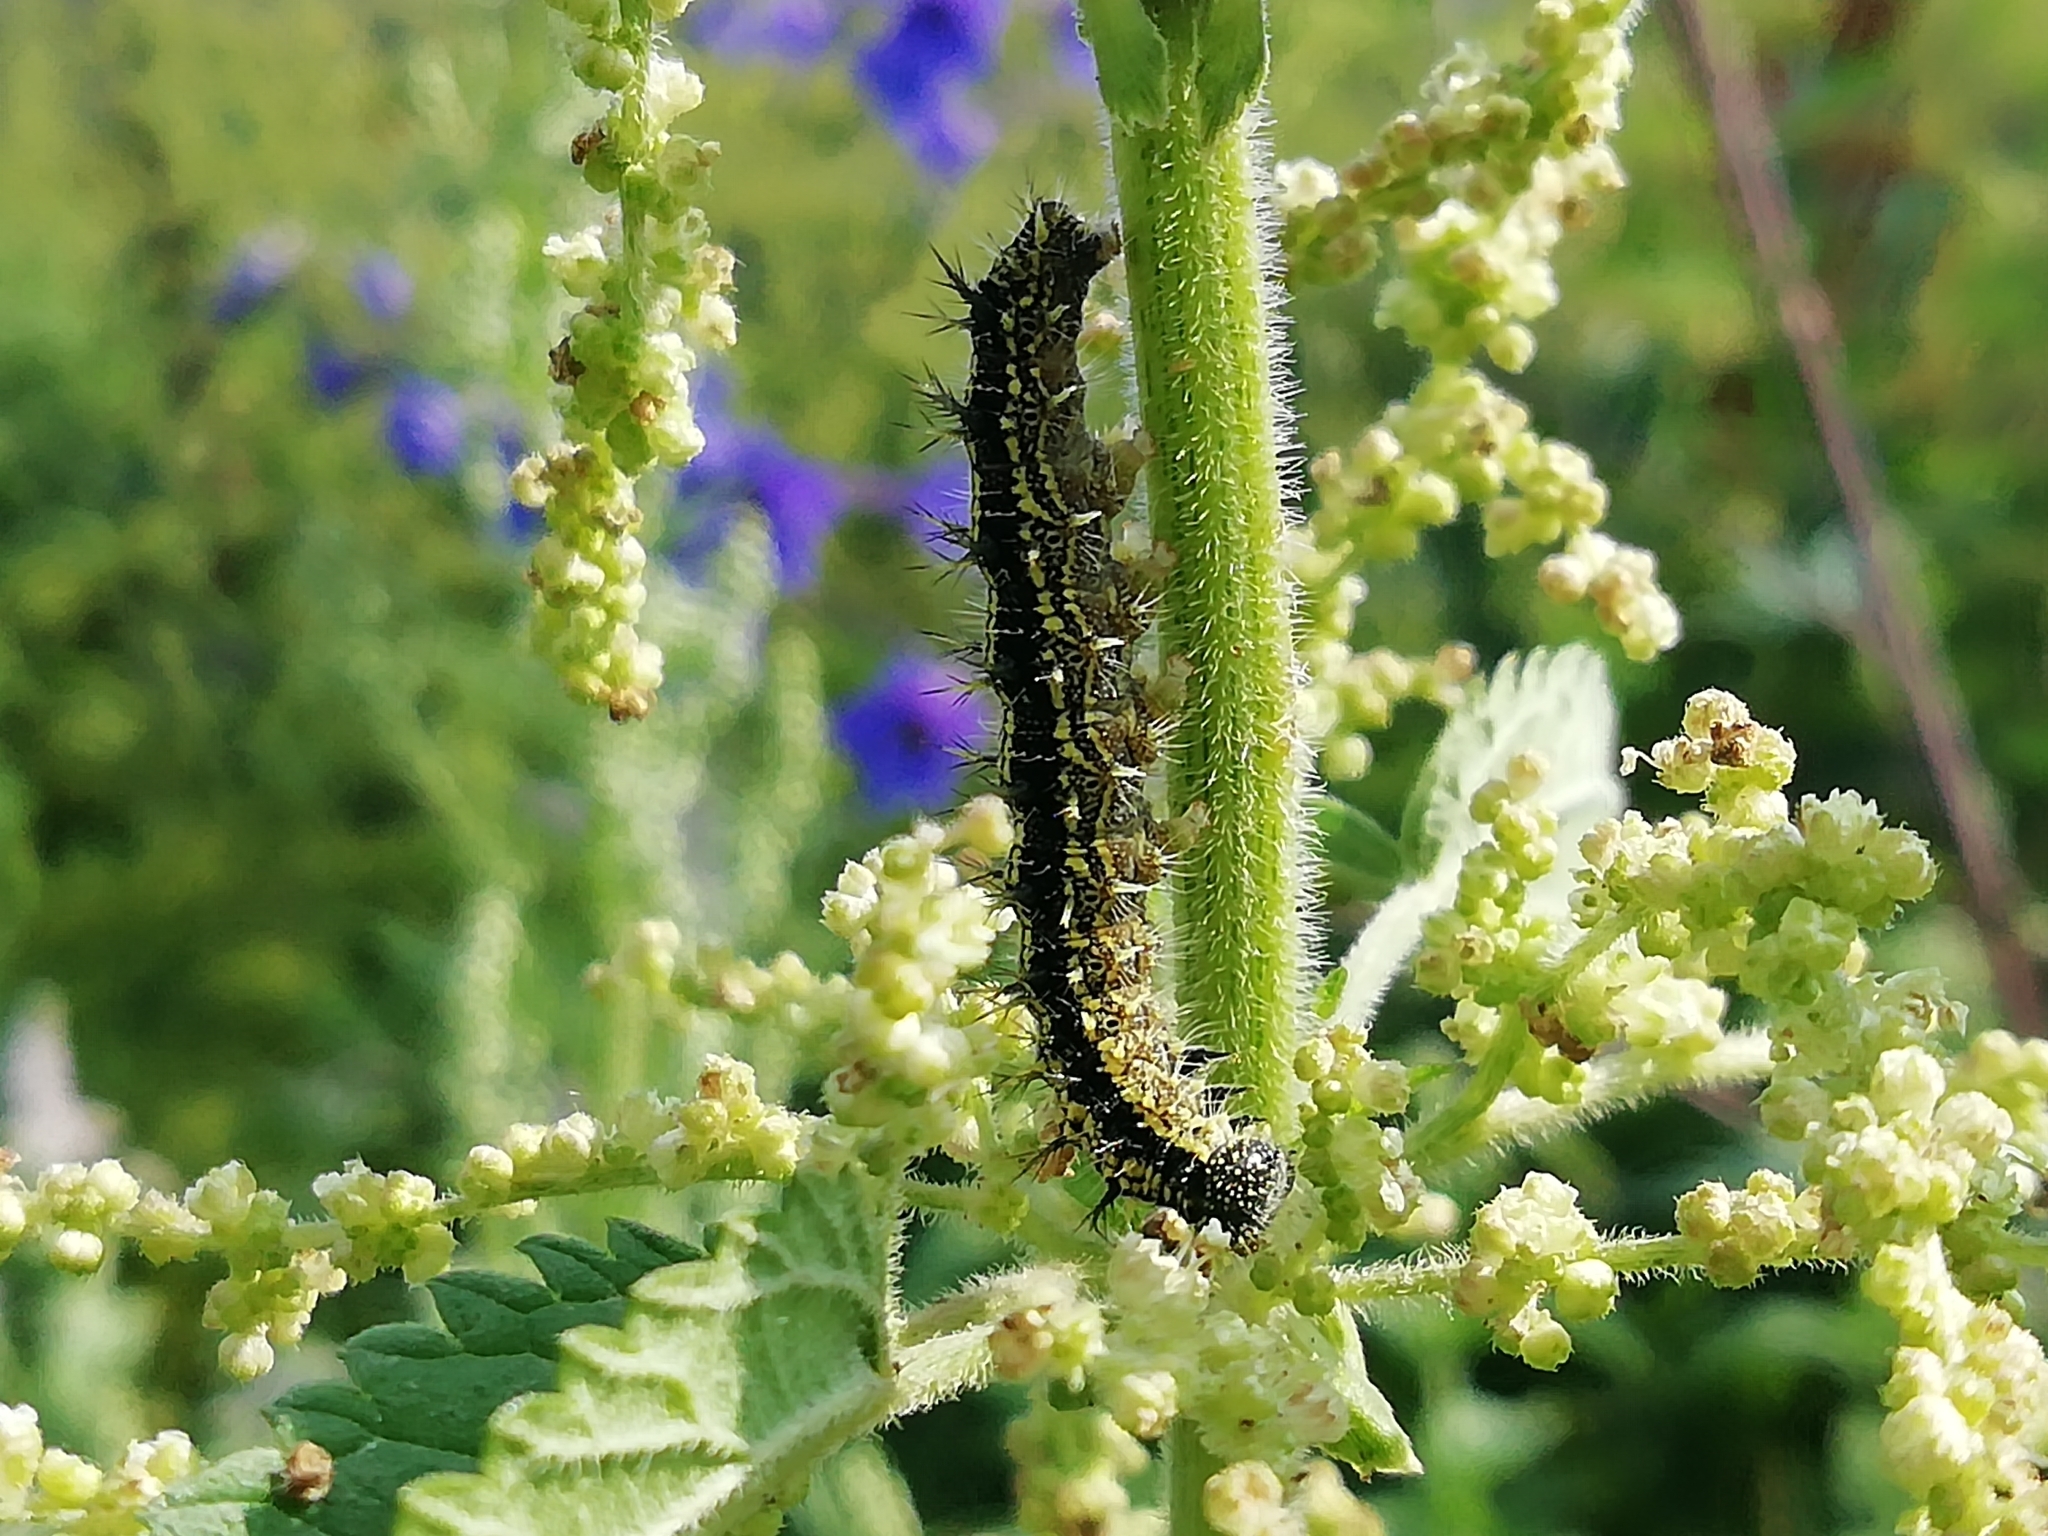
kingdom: Animalia
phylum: Arthropoda
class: Insecta
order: Lepidoptera
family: Nymphalidae
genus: Aglais
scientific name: Aglais urticae
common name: Small tortoiseshell
